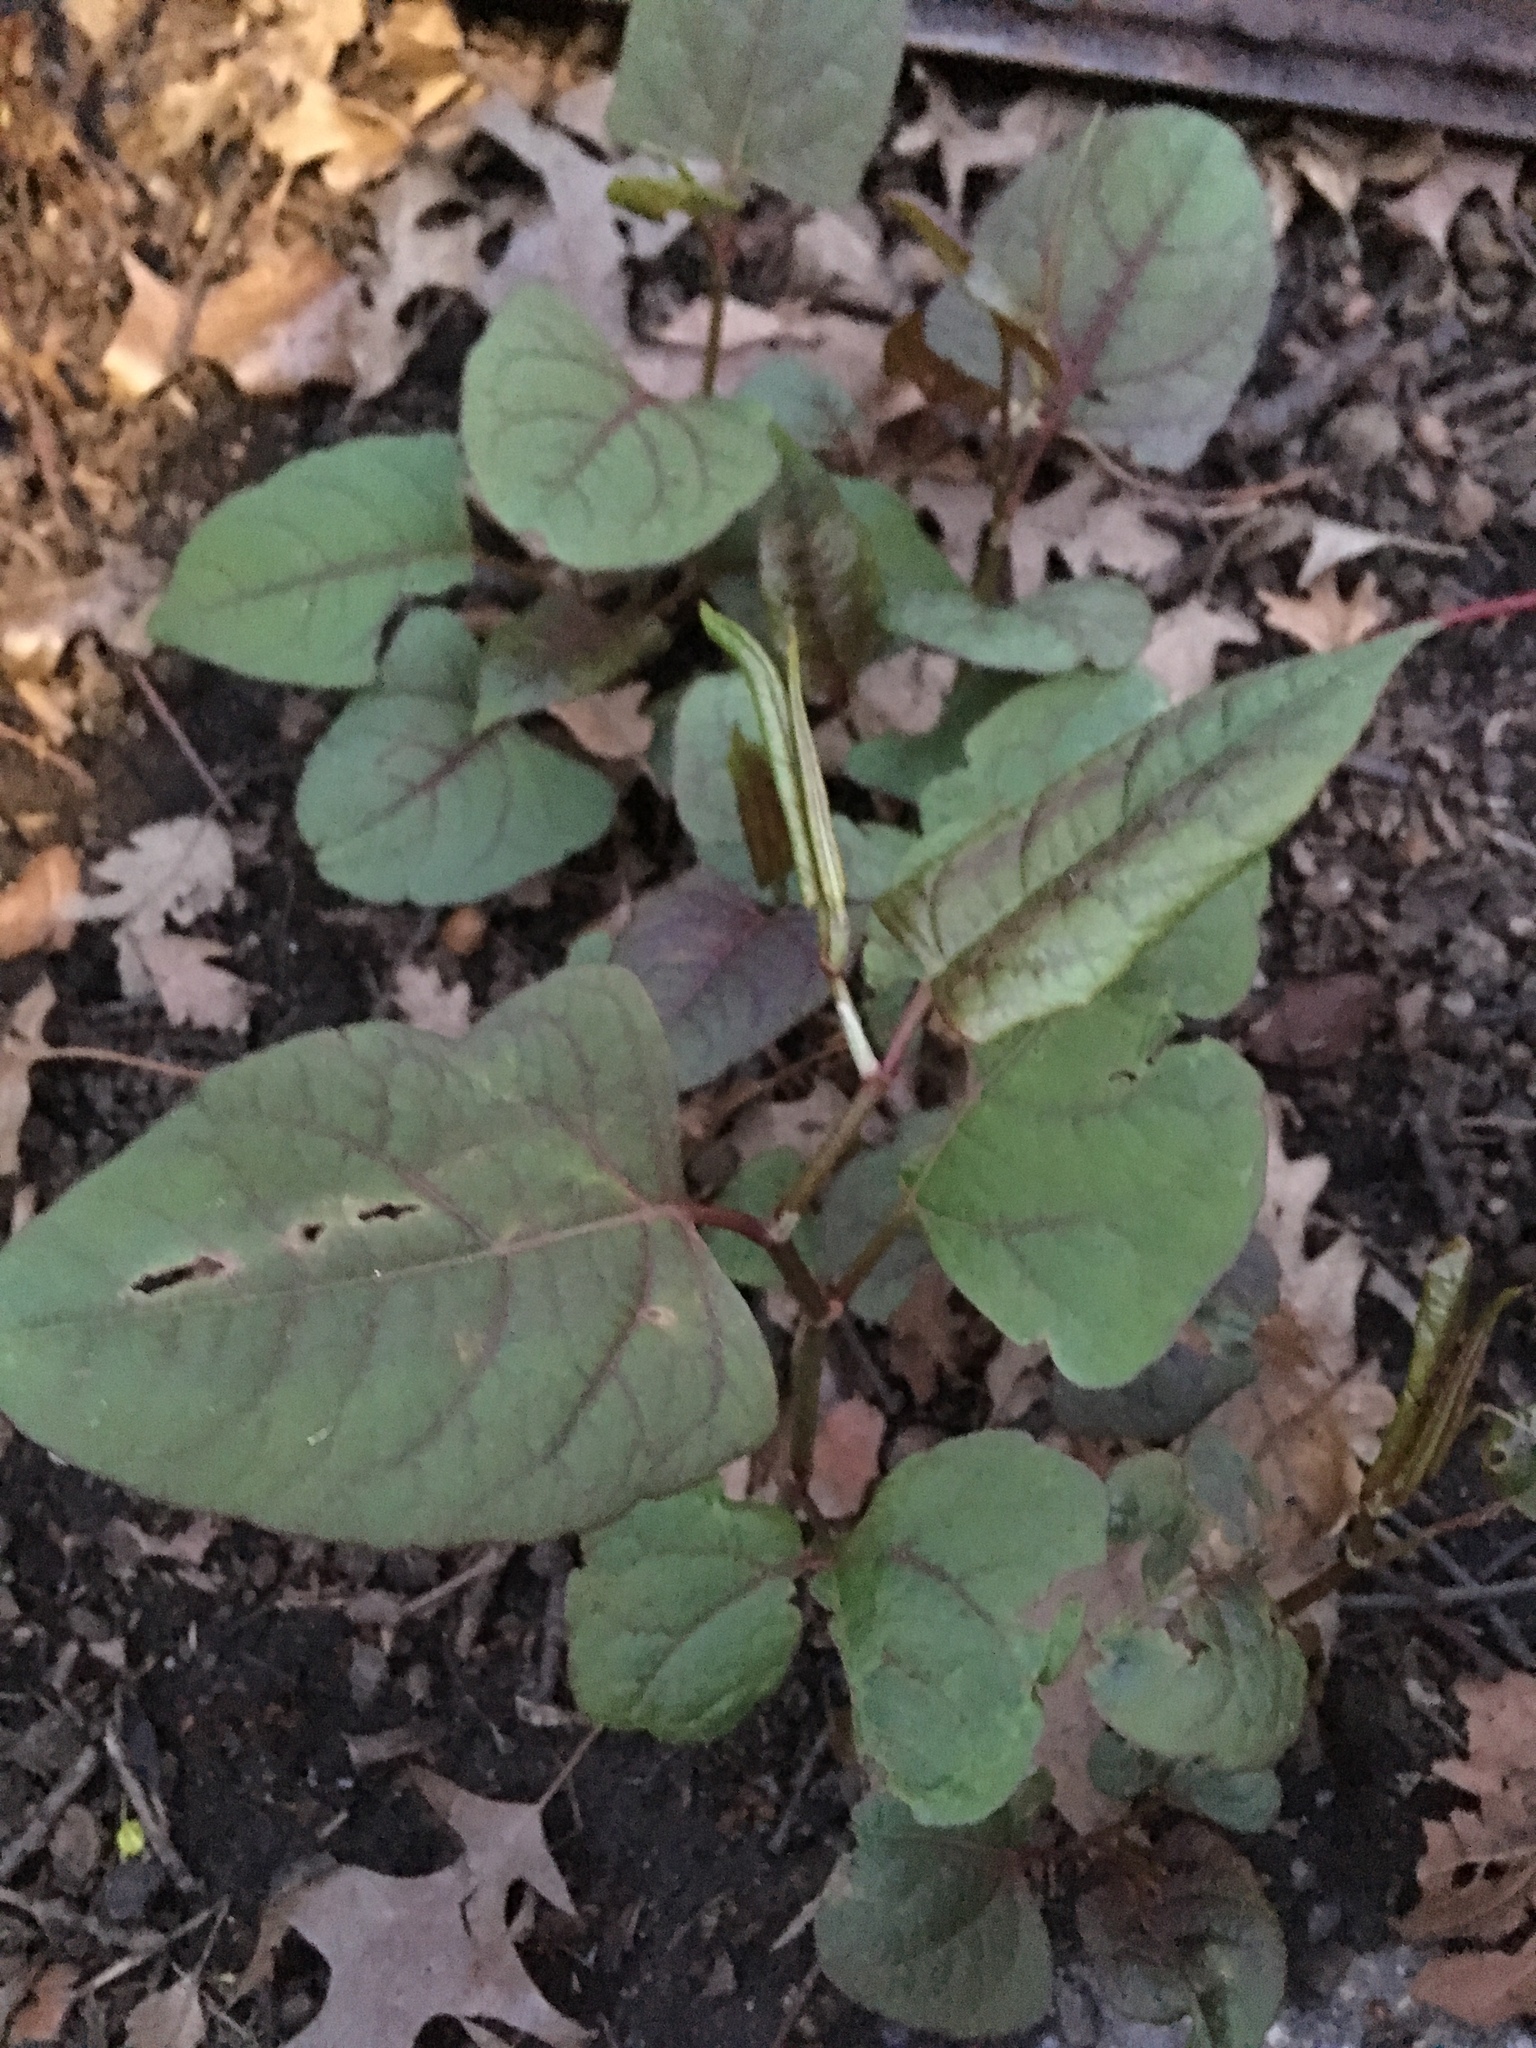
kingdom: Plantae
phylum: Tracheophyta
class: Magnoliopsida
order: Caryophyllales
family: Polygonaceae
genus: Reynoutria
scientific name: Reynoutria japonica
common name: Japanese knotweed
